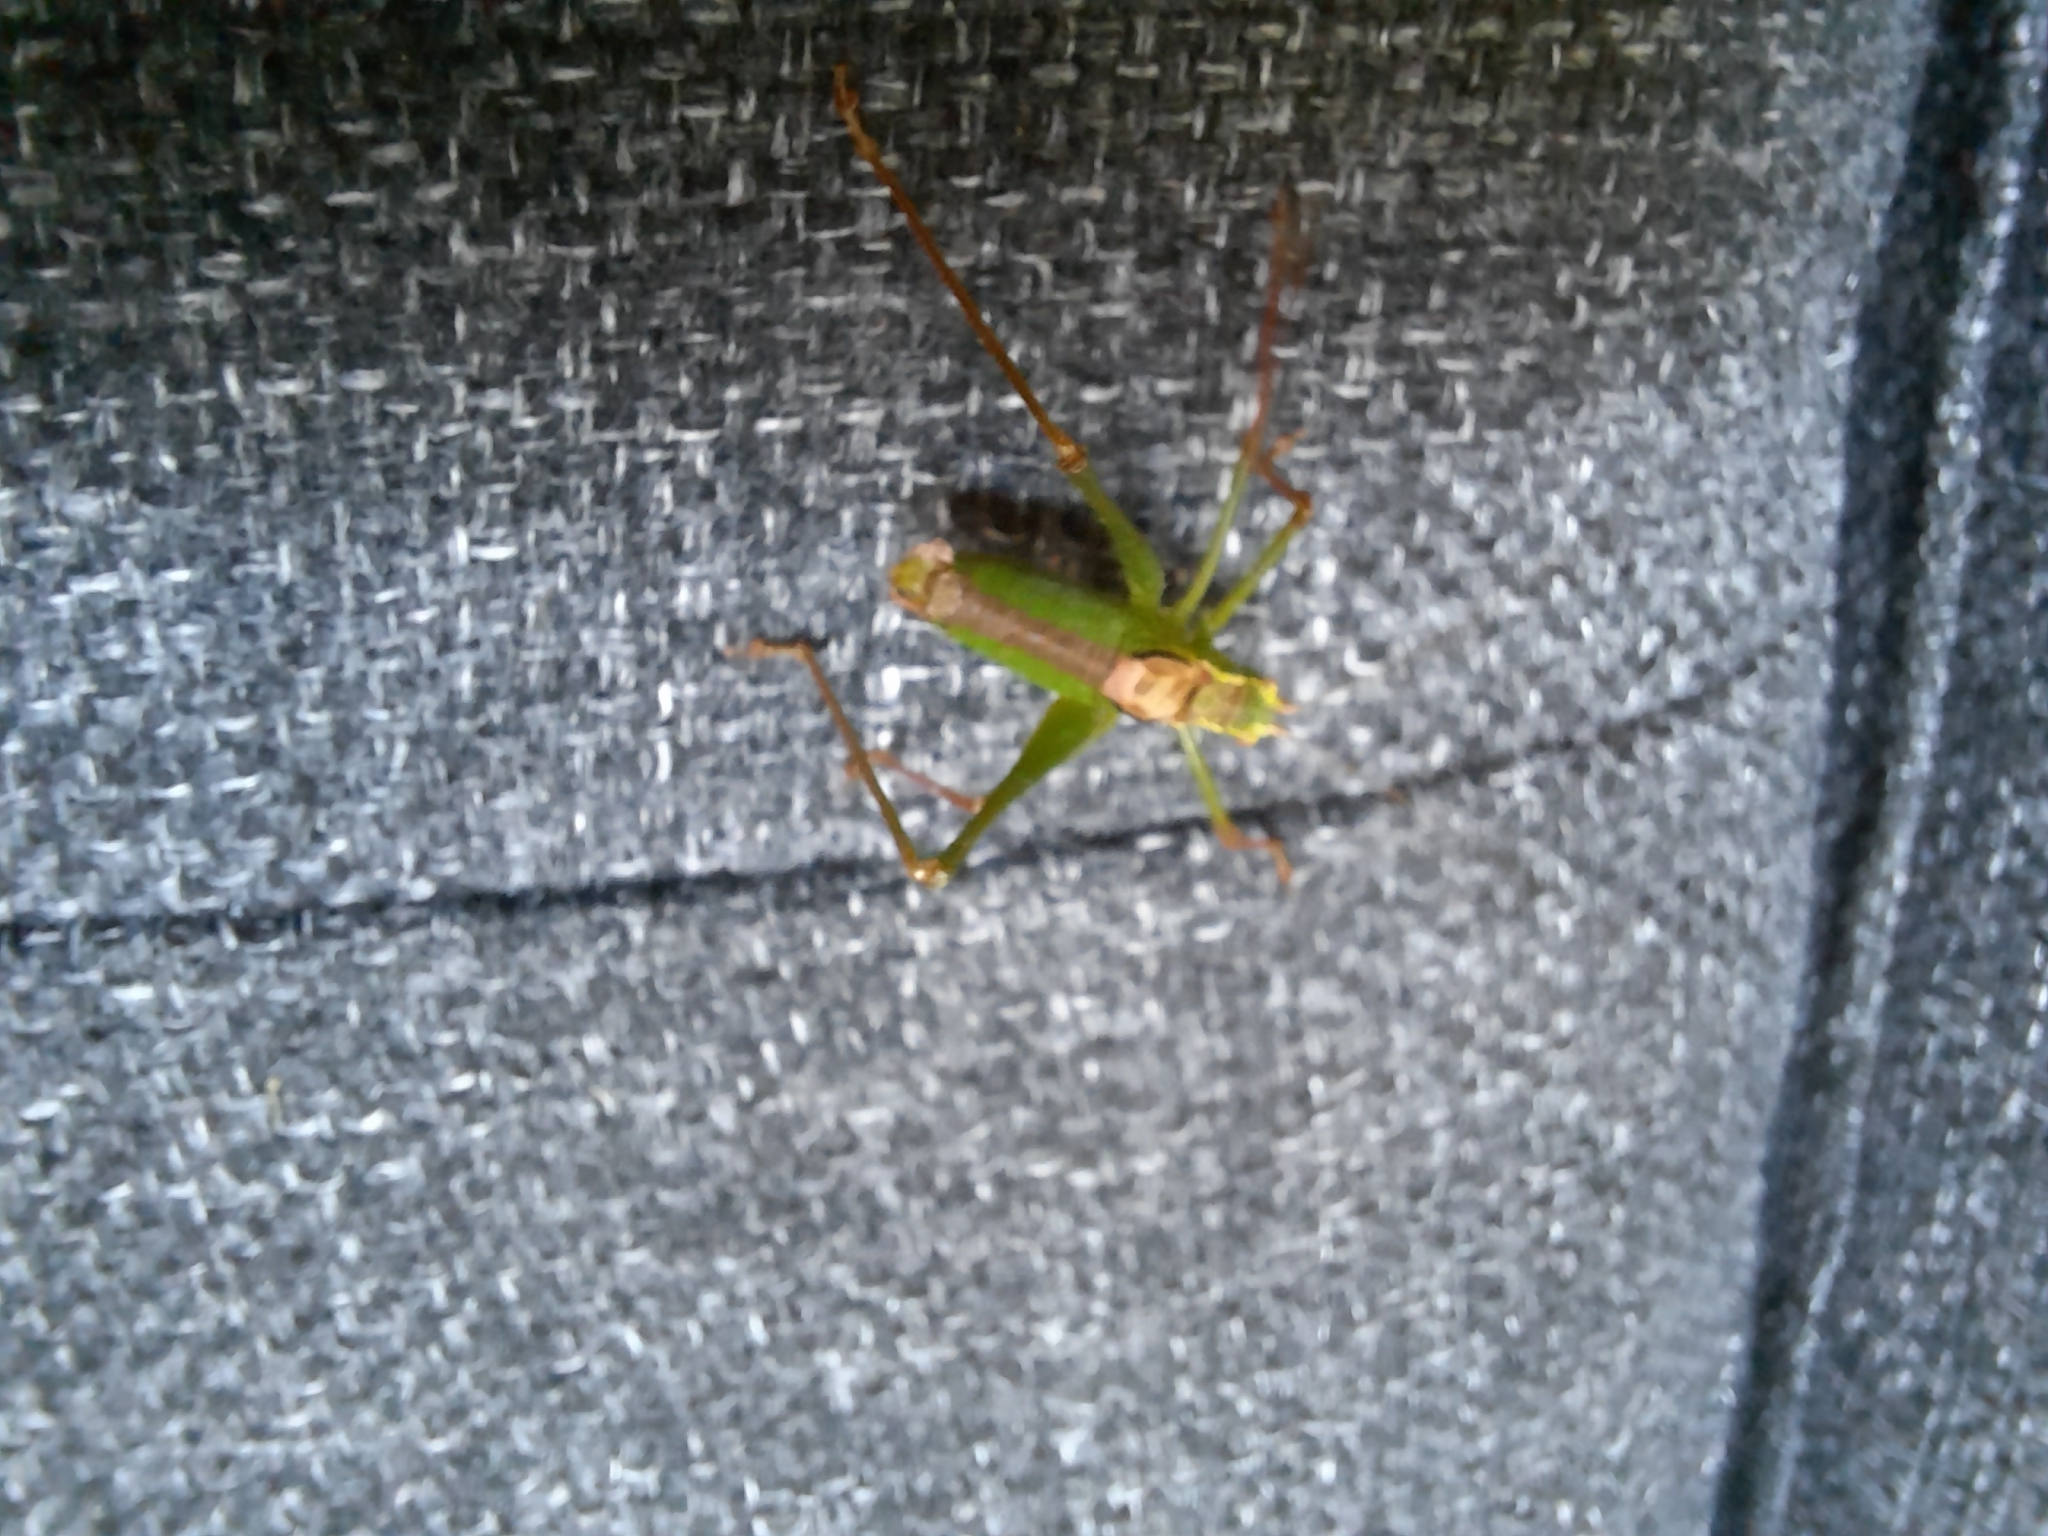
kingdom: Animalia
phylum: Arthropoda
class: Insecta
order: Orthoptera
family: Tettigoniidae
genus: Leptophyes
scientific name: Leptophyes punctatissima
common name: Speckled bush-cricket
